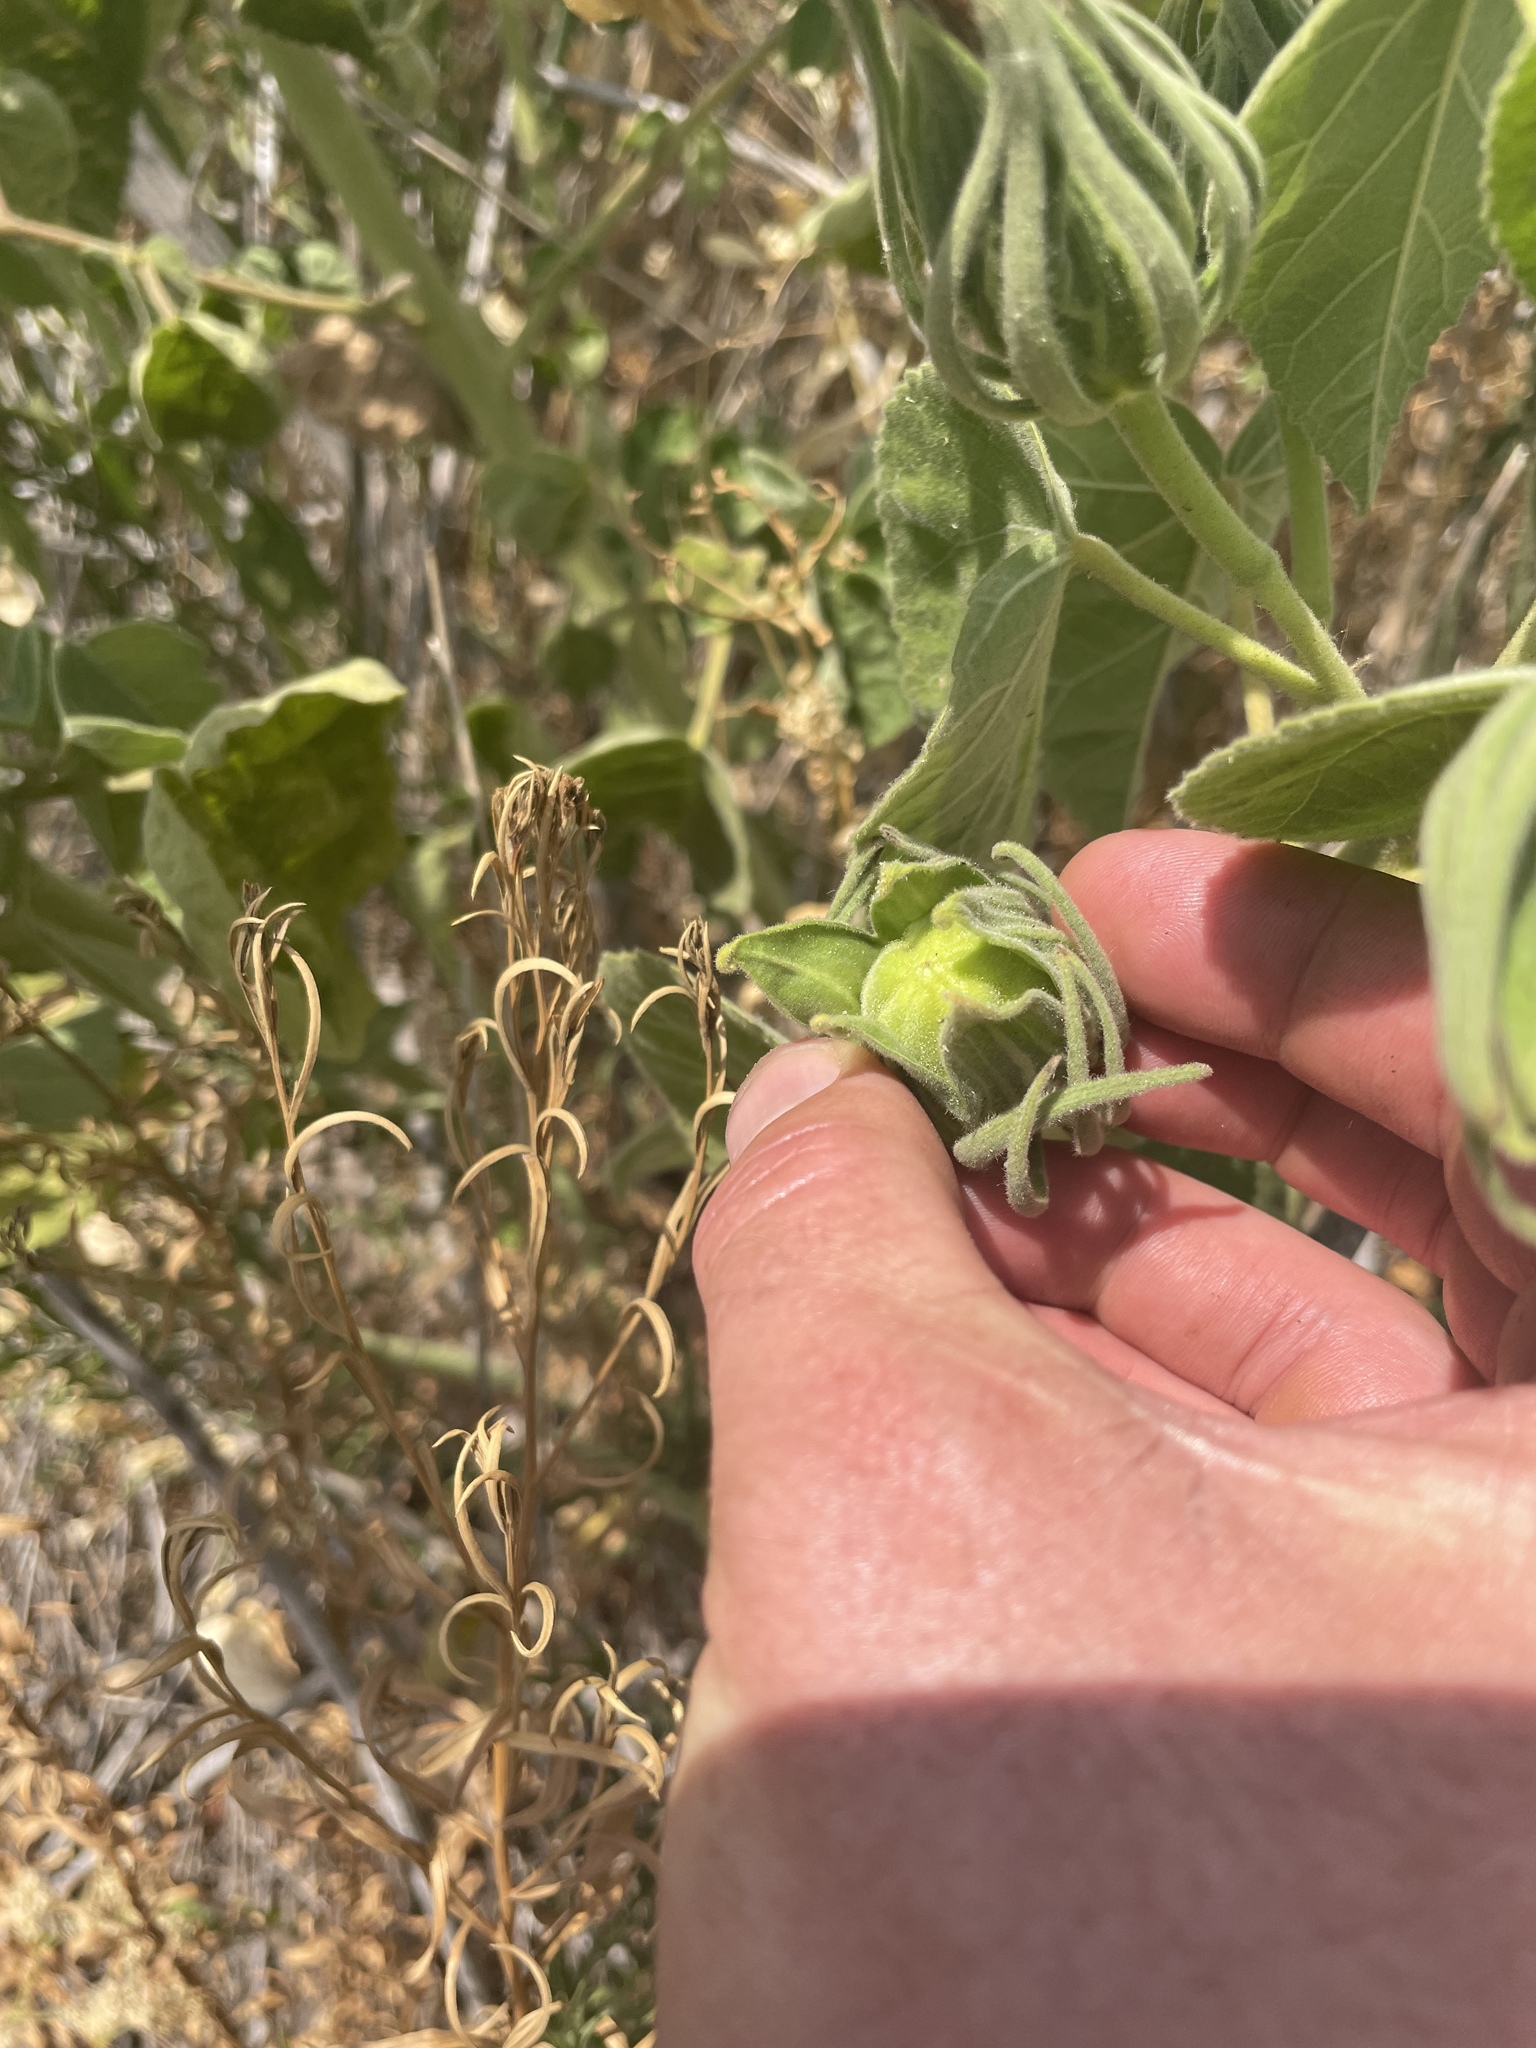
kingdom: Plantae
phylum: Tracheophyta
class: Magnoliopsida
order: Malvales
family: Malvaceae
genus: Hibiscus
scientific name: Hibiscus moscheutos
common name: Common rose-mallow
